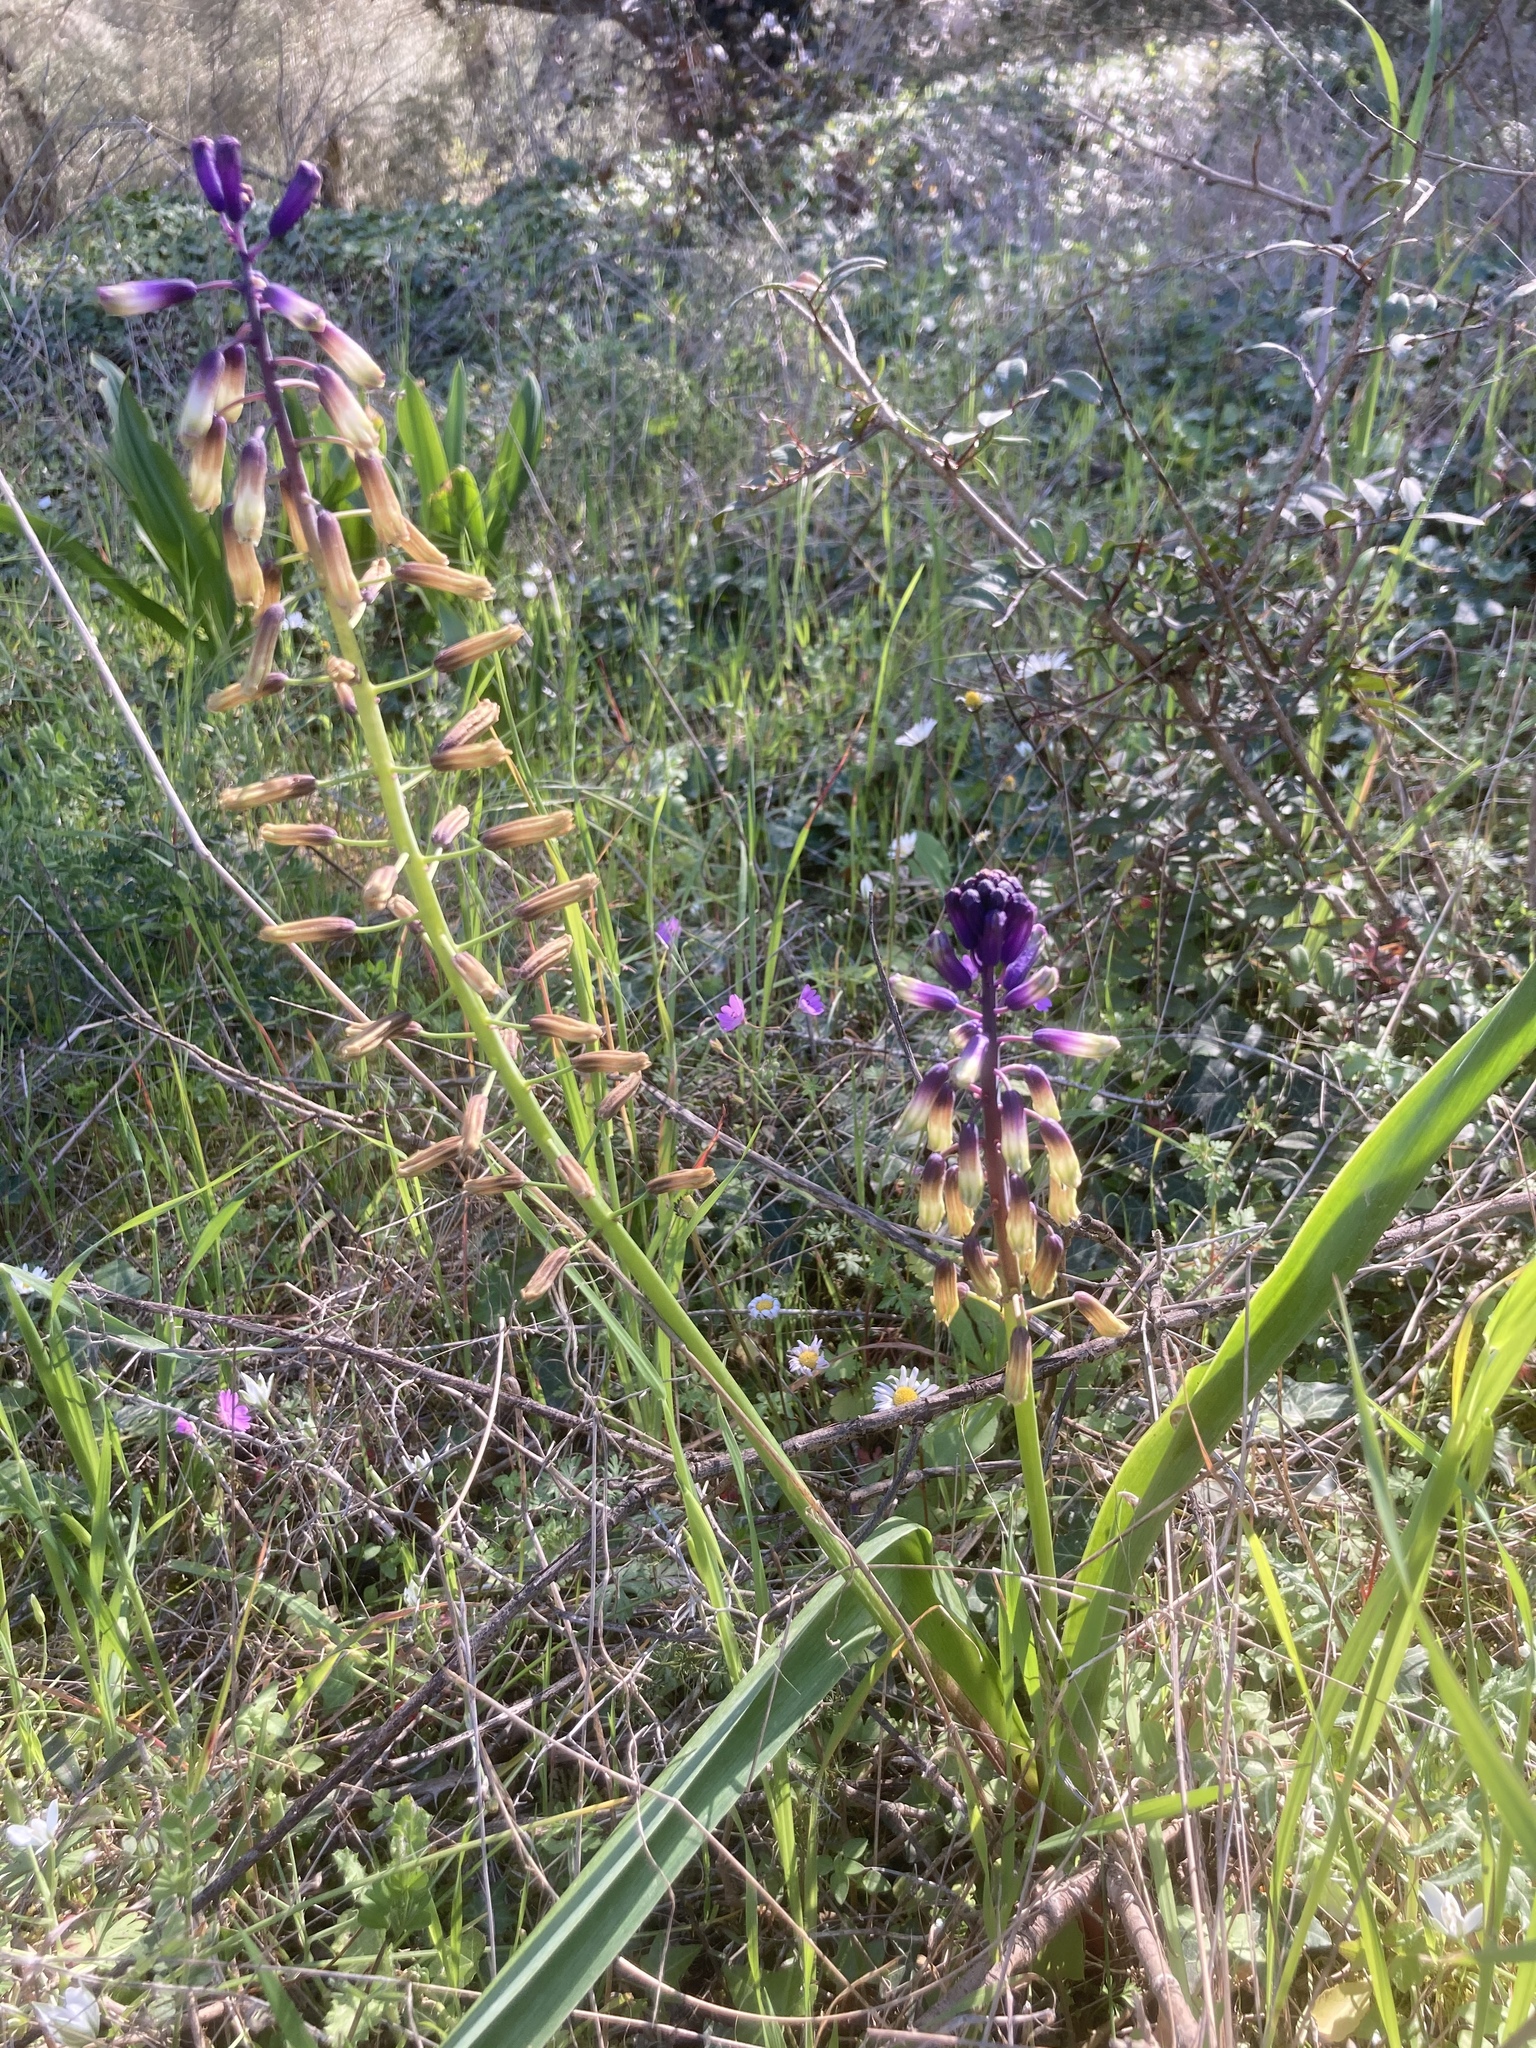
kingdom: Plantae
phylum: Tracheophyta
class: Liliopsida
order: Asparagales
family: Asparagaceae
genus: Bellevalia
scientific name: Bellevalia trifoliata
